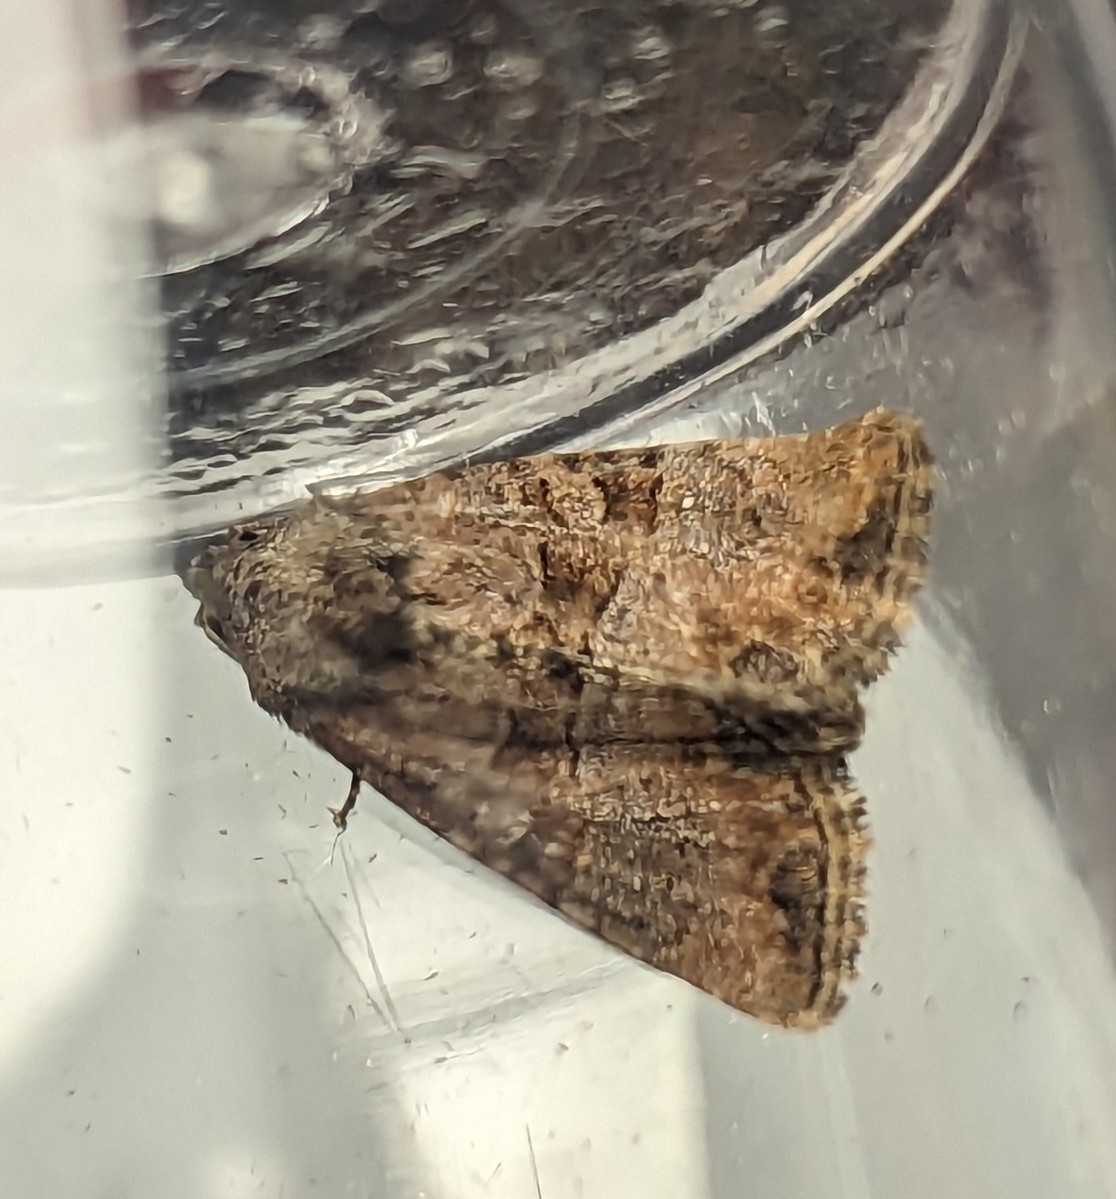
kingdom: Animalia
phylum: Arthropoda
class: Insecta
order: Lepidoptera
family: Noctuidae
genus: Mesoligia
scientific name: Mesoligia furuncula
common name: Cloaked minor
